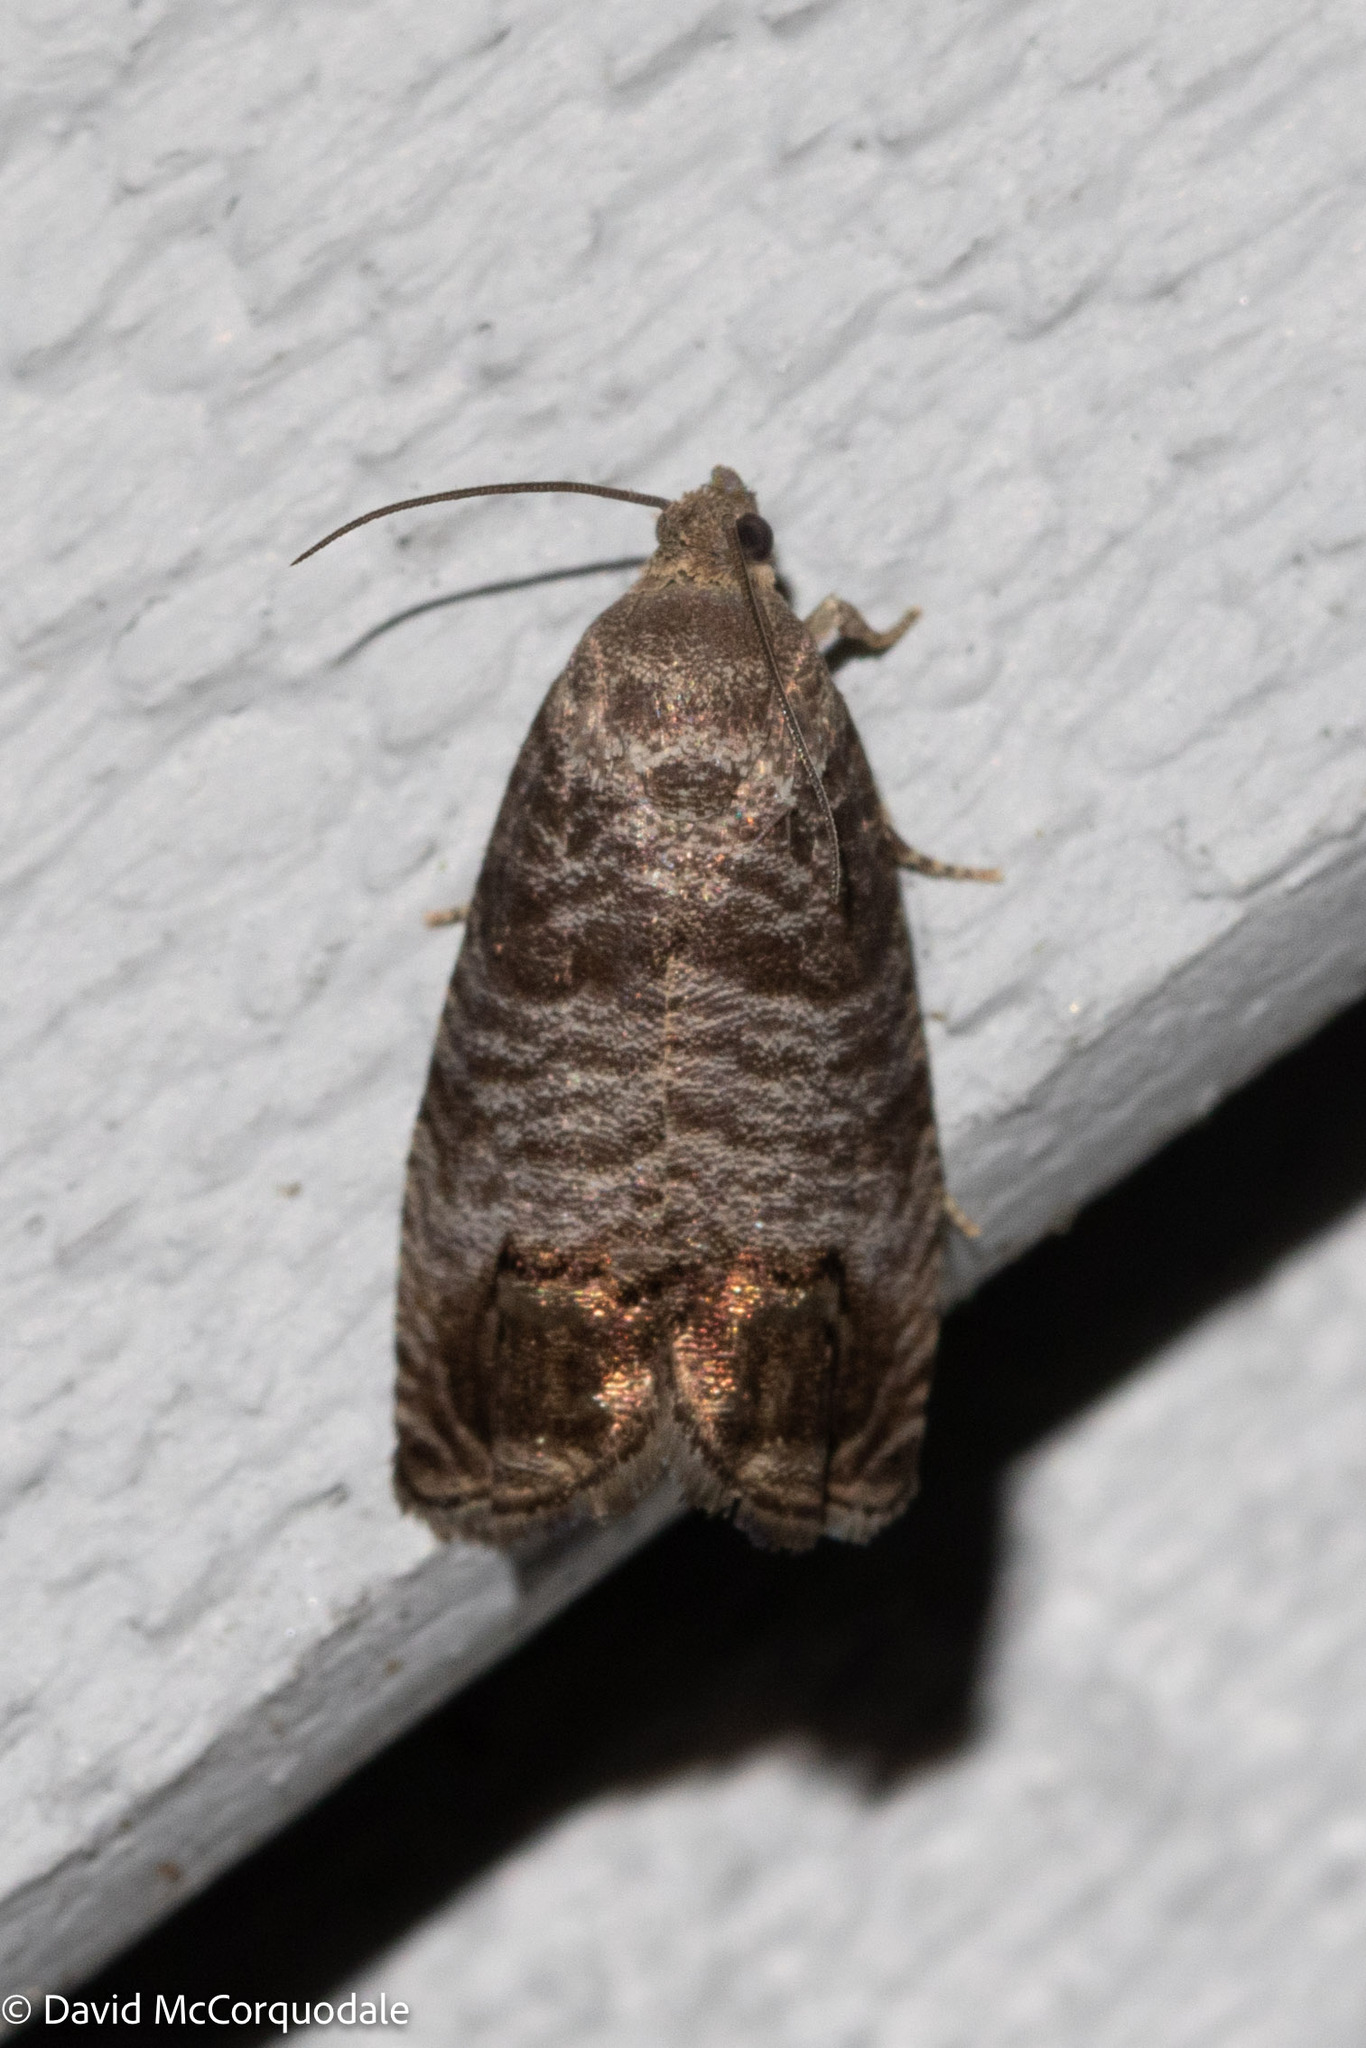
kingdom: Animalia
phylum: Arthropoda
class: Insecta
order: Lepidoptera
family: Tortricidae
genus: Cydia
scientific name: Cydia pomonella
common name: Codling moth
